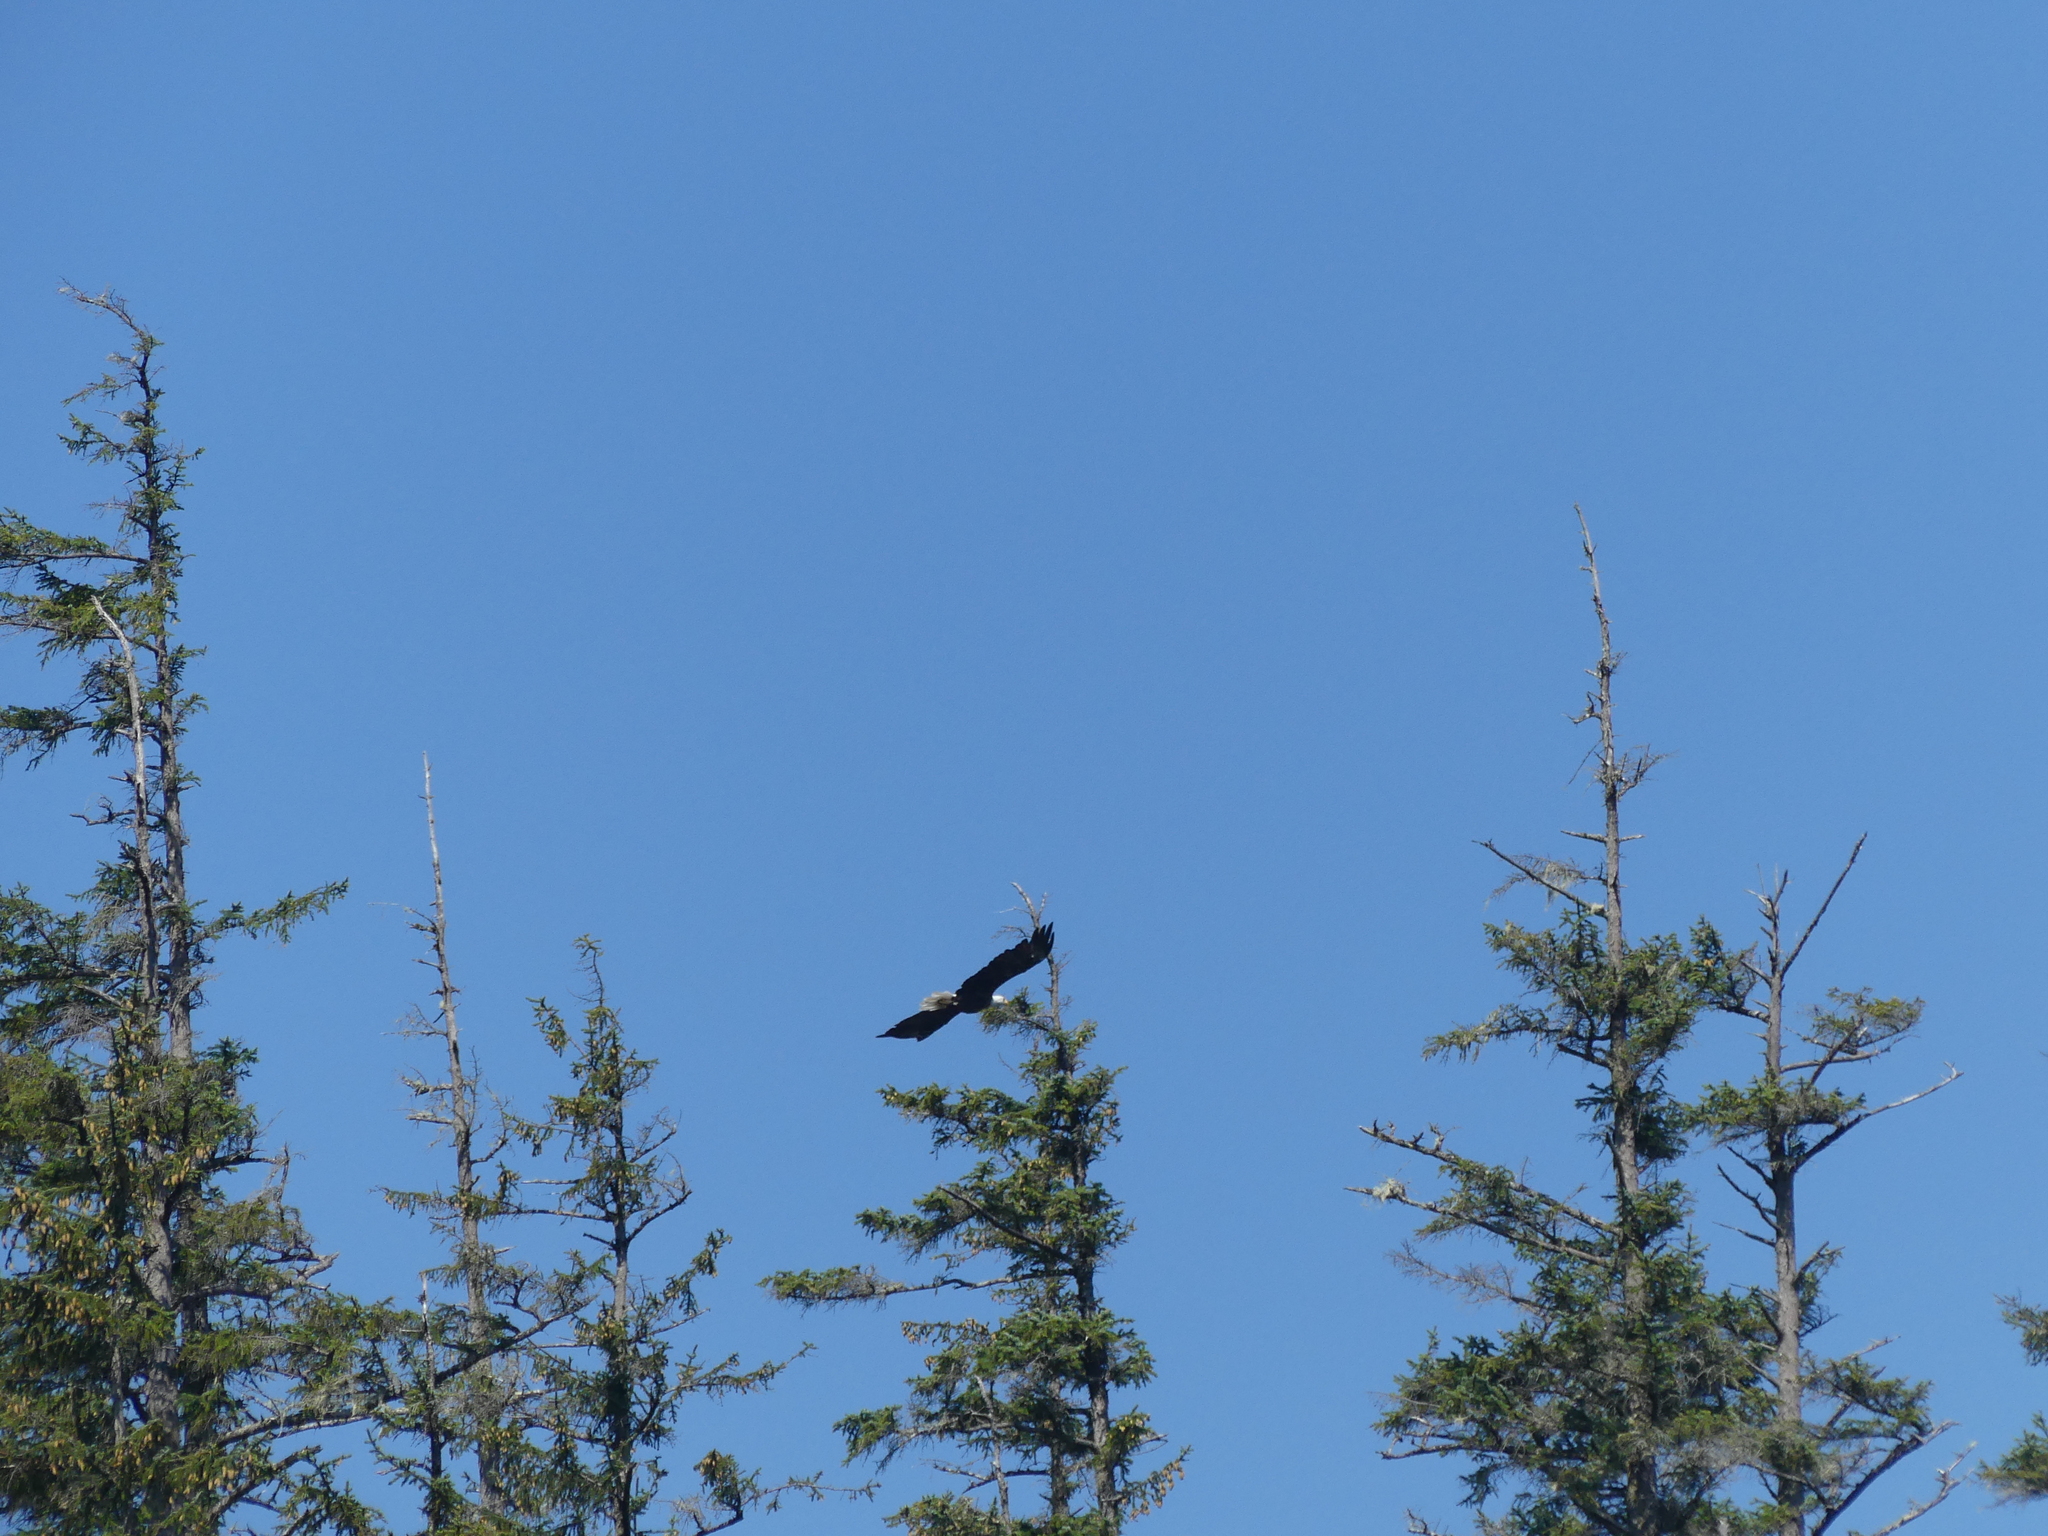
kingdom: Animalia
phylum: Chordata
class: Aves
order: Accipitriformes
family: Accipitridae
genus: Haliaeetus
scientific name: Haliaeetus leucocephalus
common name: Bald eagle
